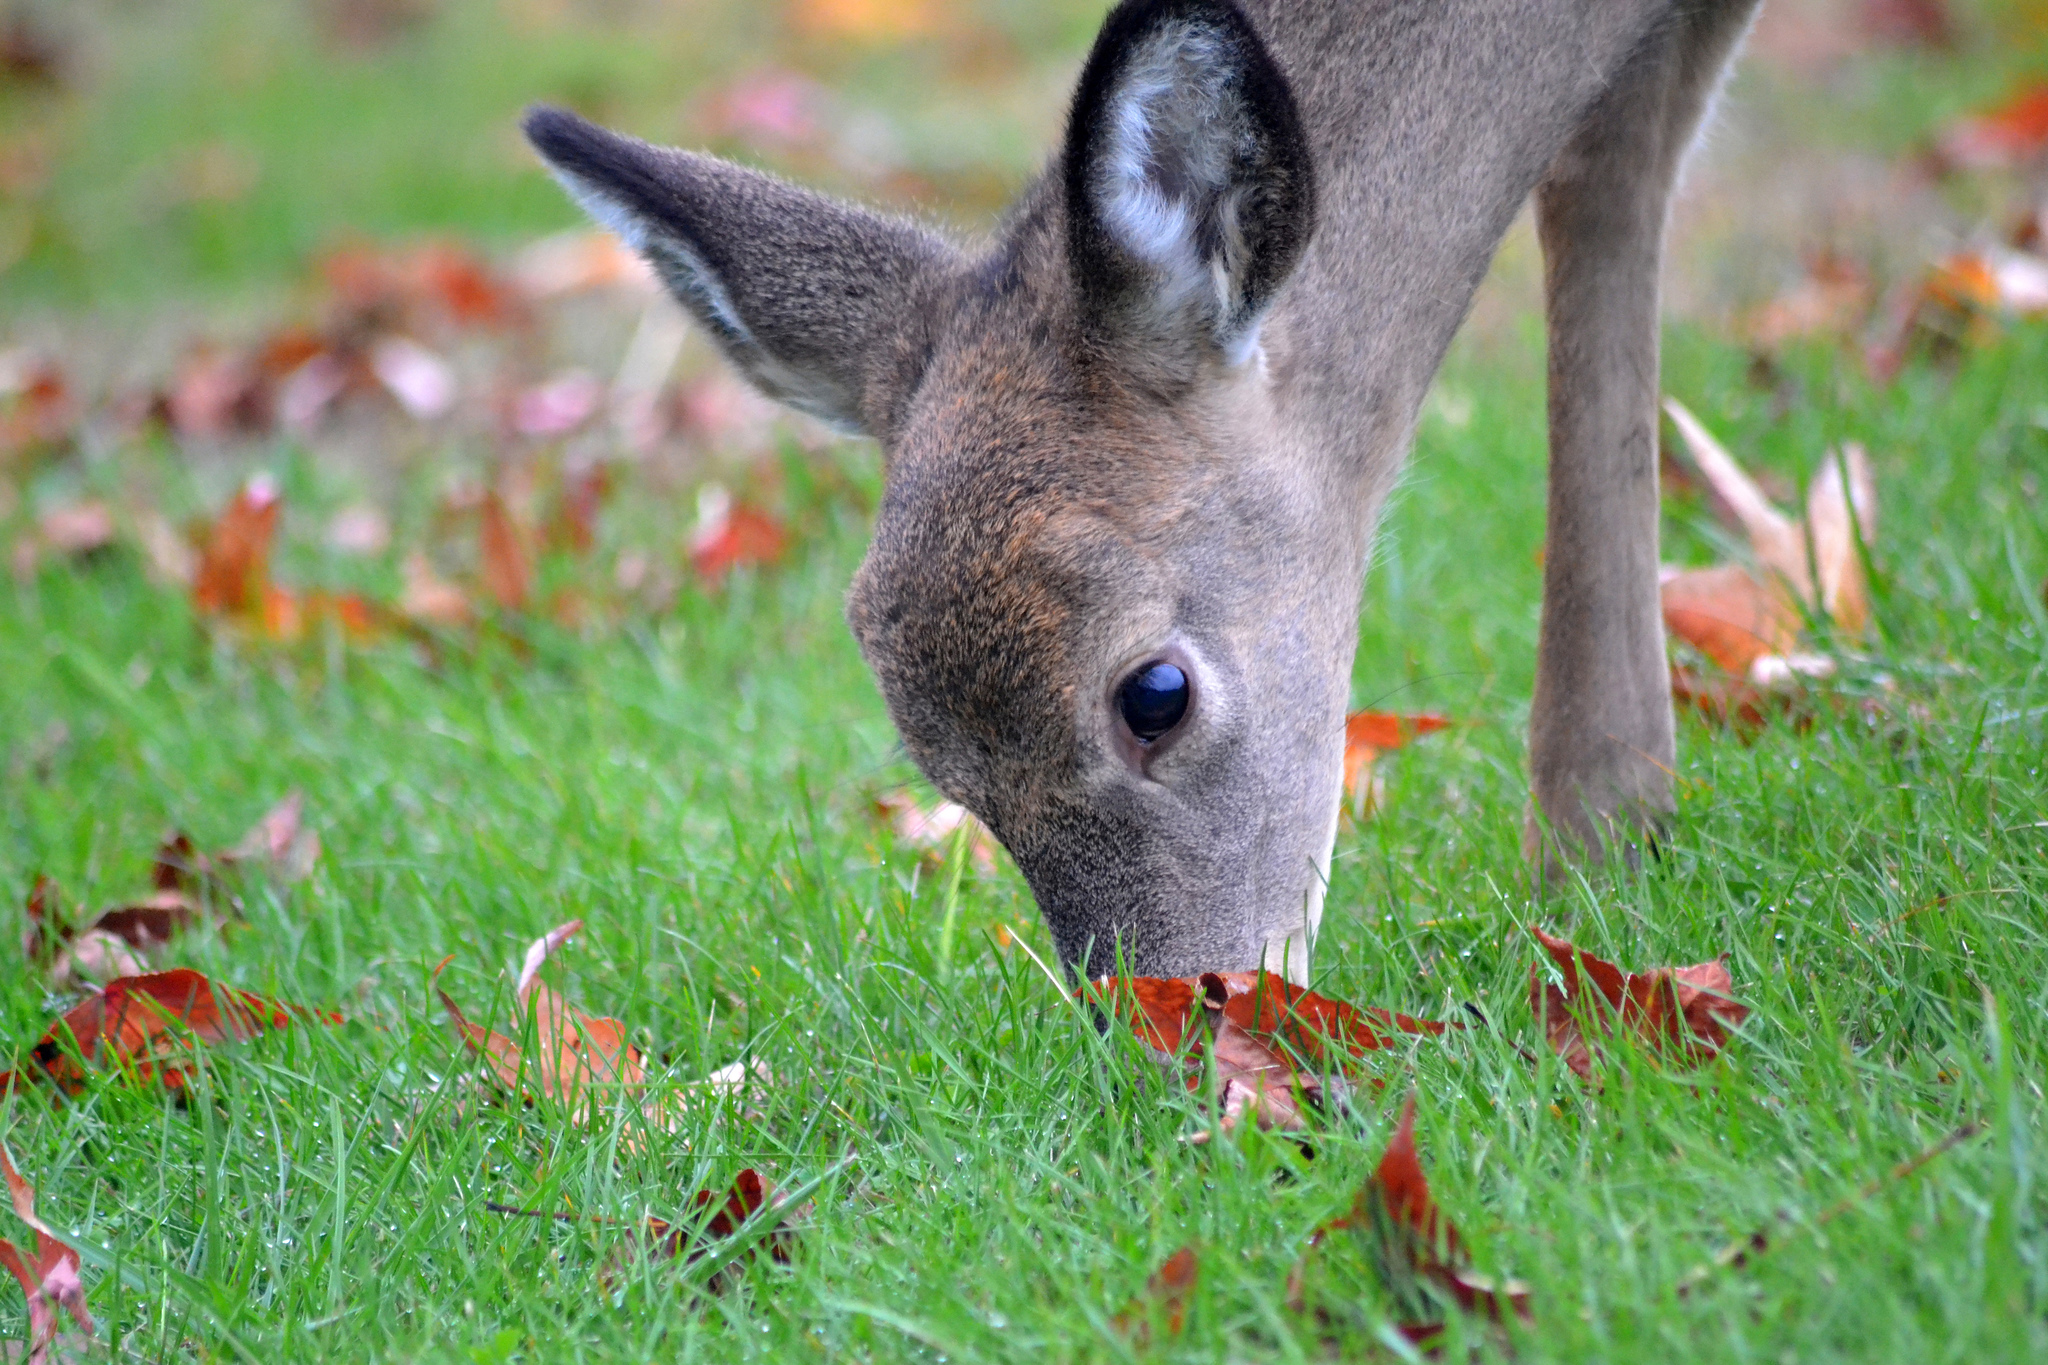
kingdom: Animalia
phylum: Chordata
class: Mammalia
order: Artiodactyla
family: Cervidae
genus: Odocoileus
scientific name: Odocoileus virginianus
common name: White-tailed deer
